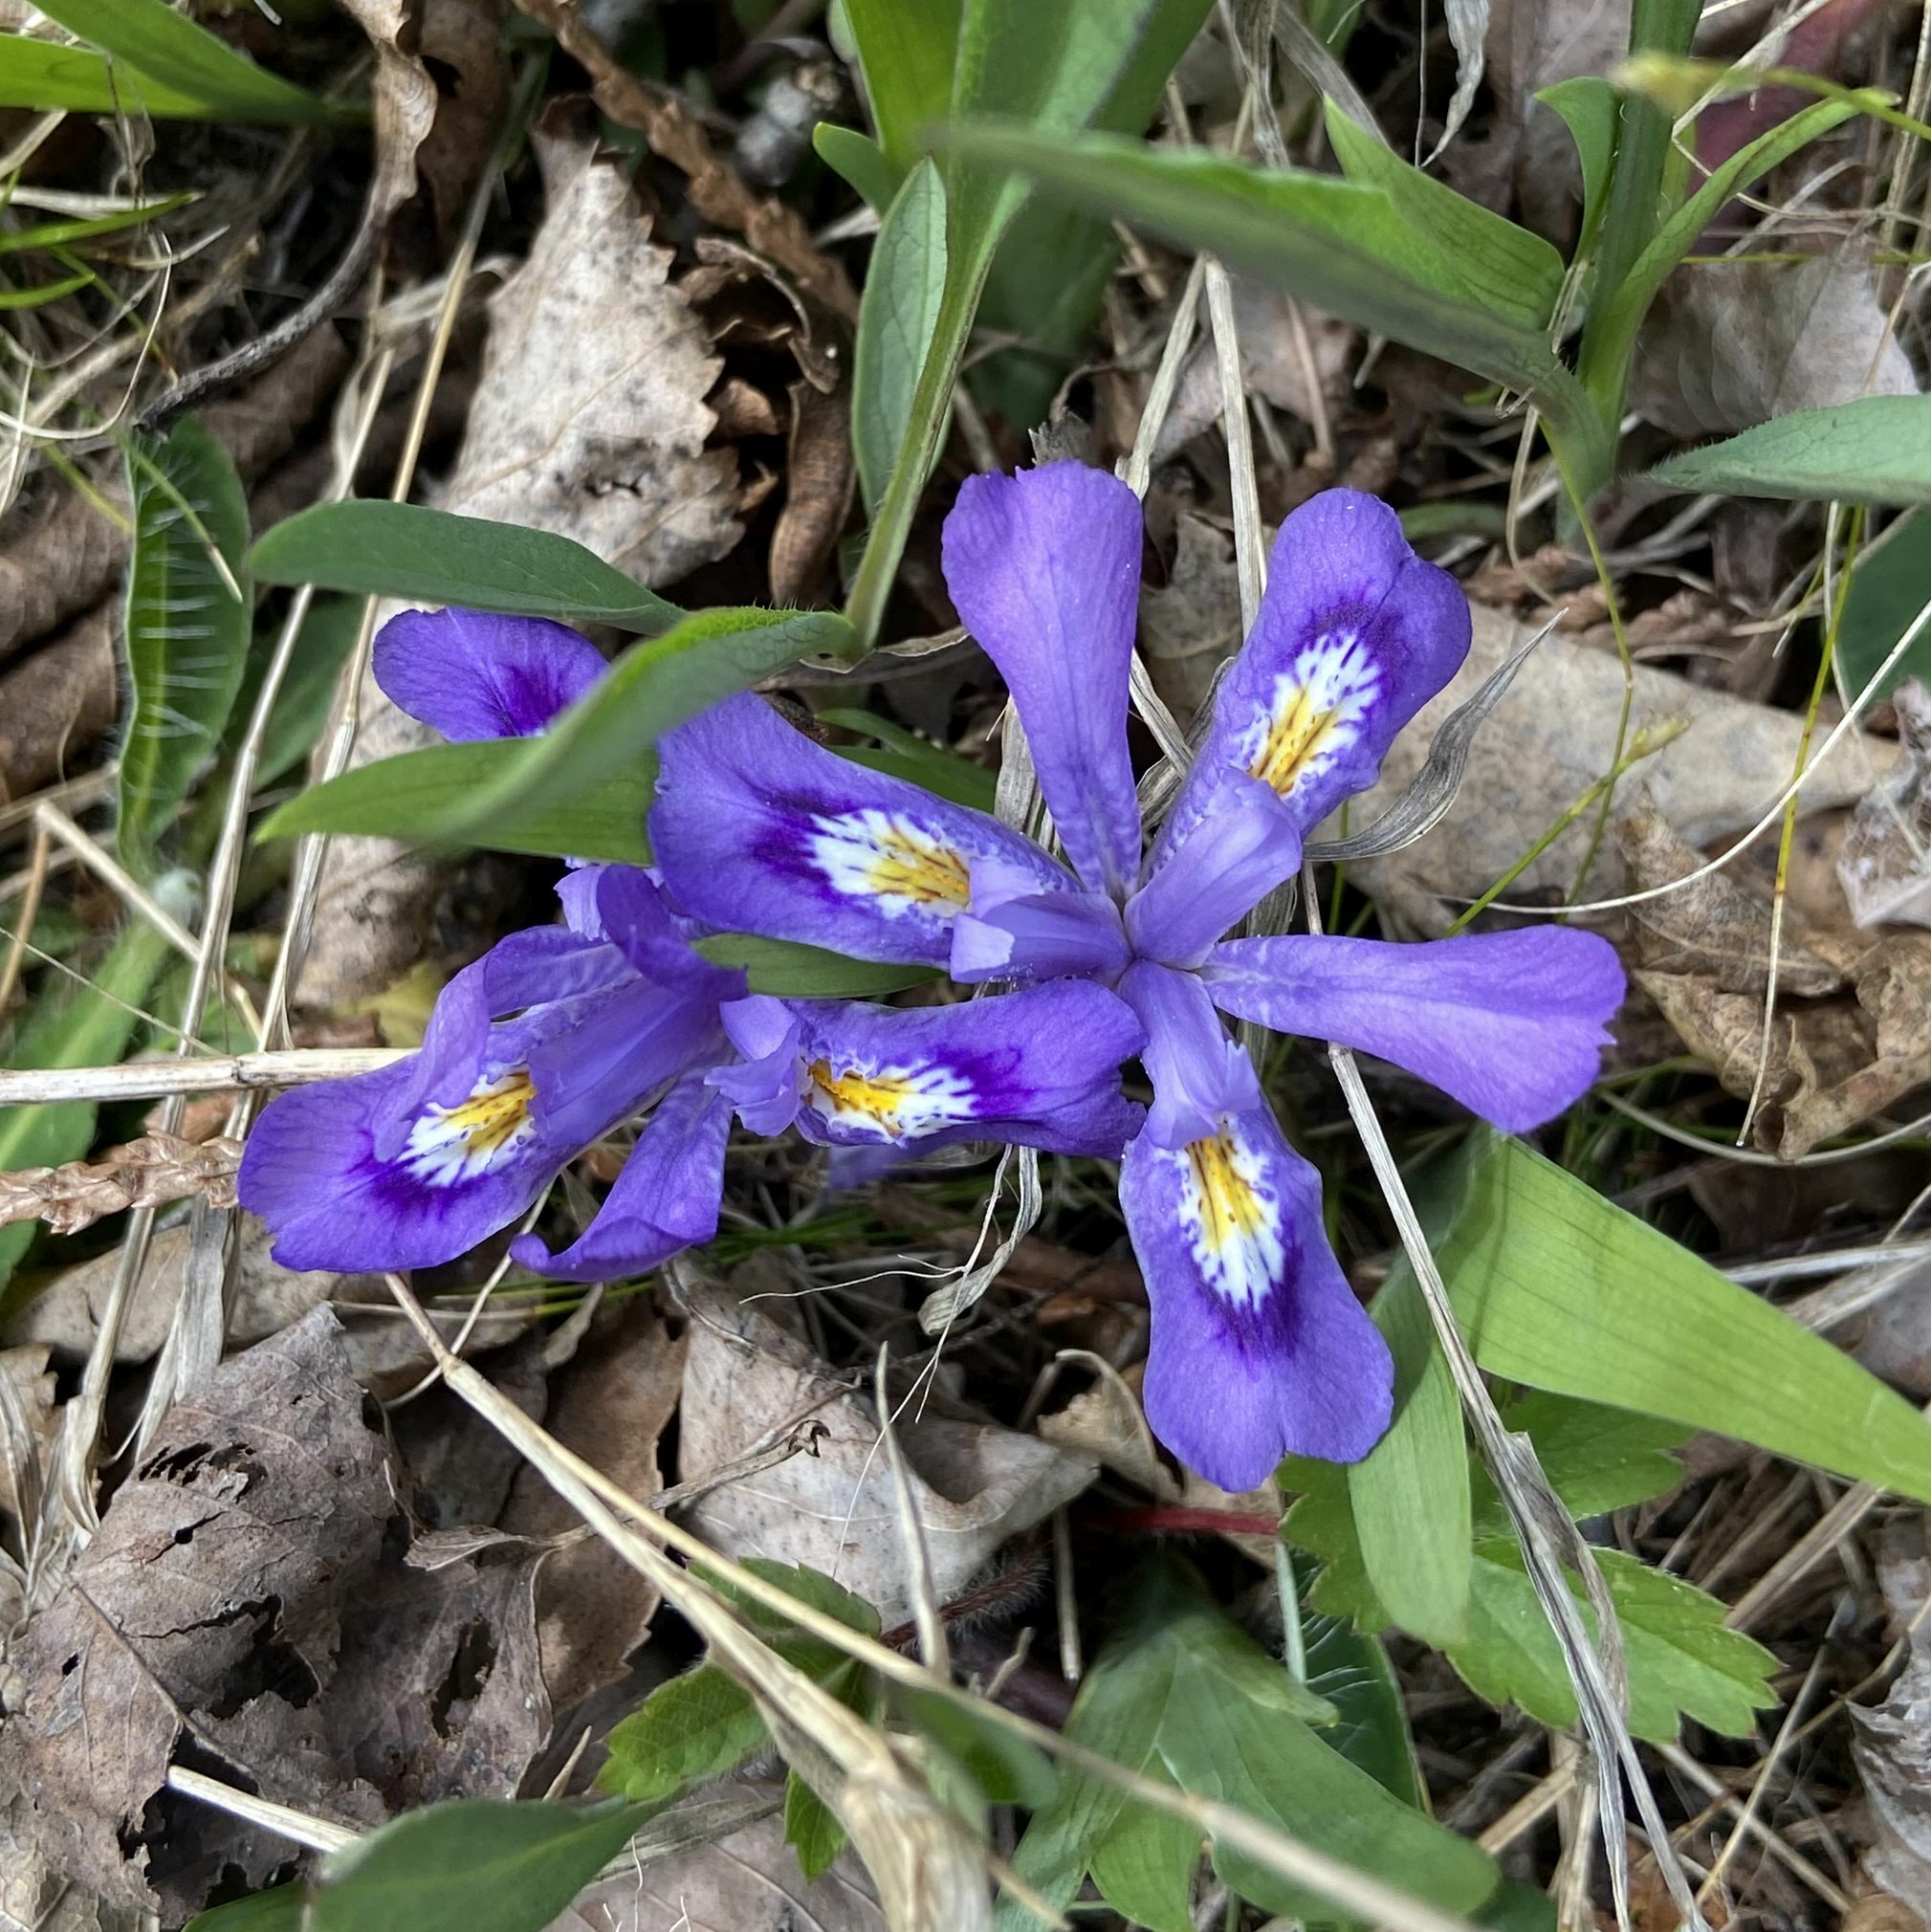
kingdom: Plantae
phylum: Tracheophyta
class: Liliopsida
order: Asparagales
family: Iridaceae
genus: Iris
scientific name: Iris lacustris
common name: Dwarf lake iris
